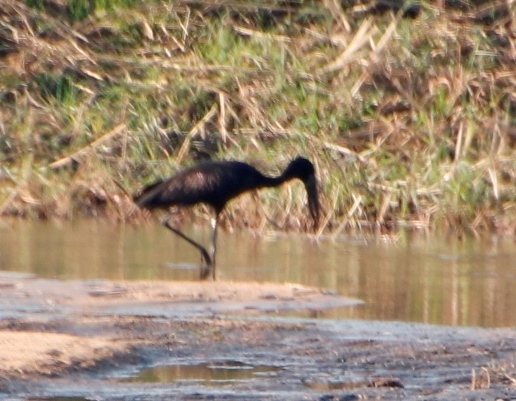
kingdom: Animalia
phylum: Chordata
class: Aves
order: Ciconiiformes
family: Ciconiidae
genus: Anastomus
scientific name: Anastomus lamelligerus
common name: African openbill
